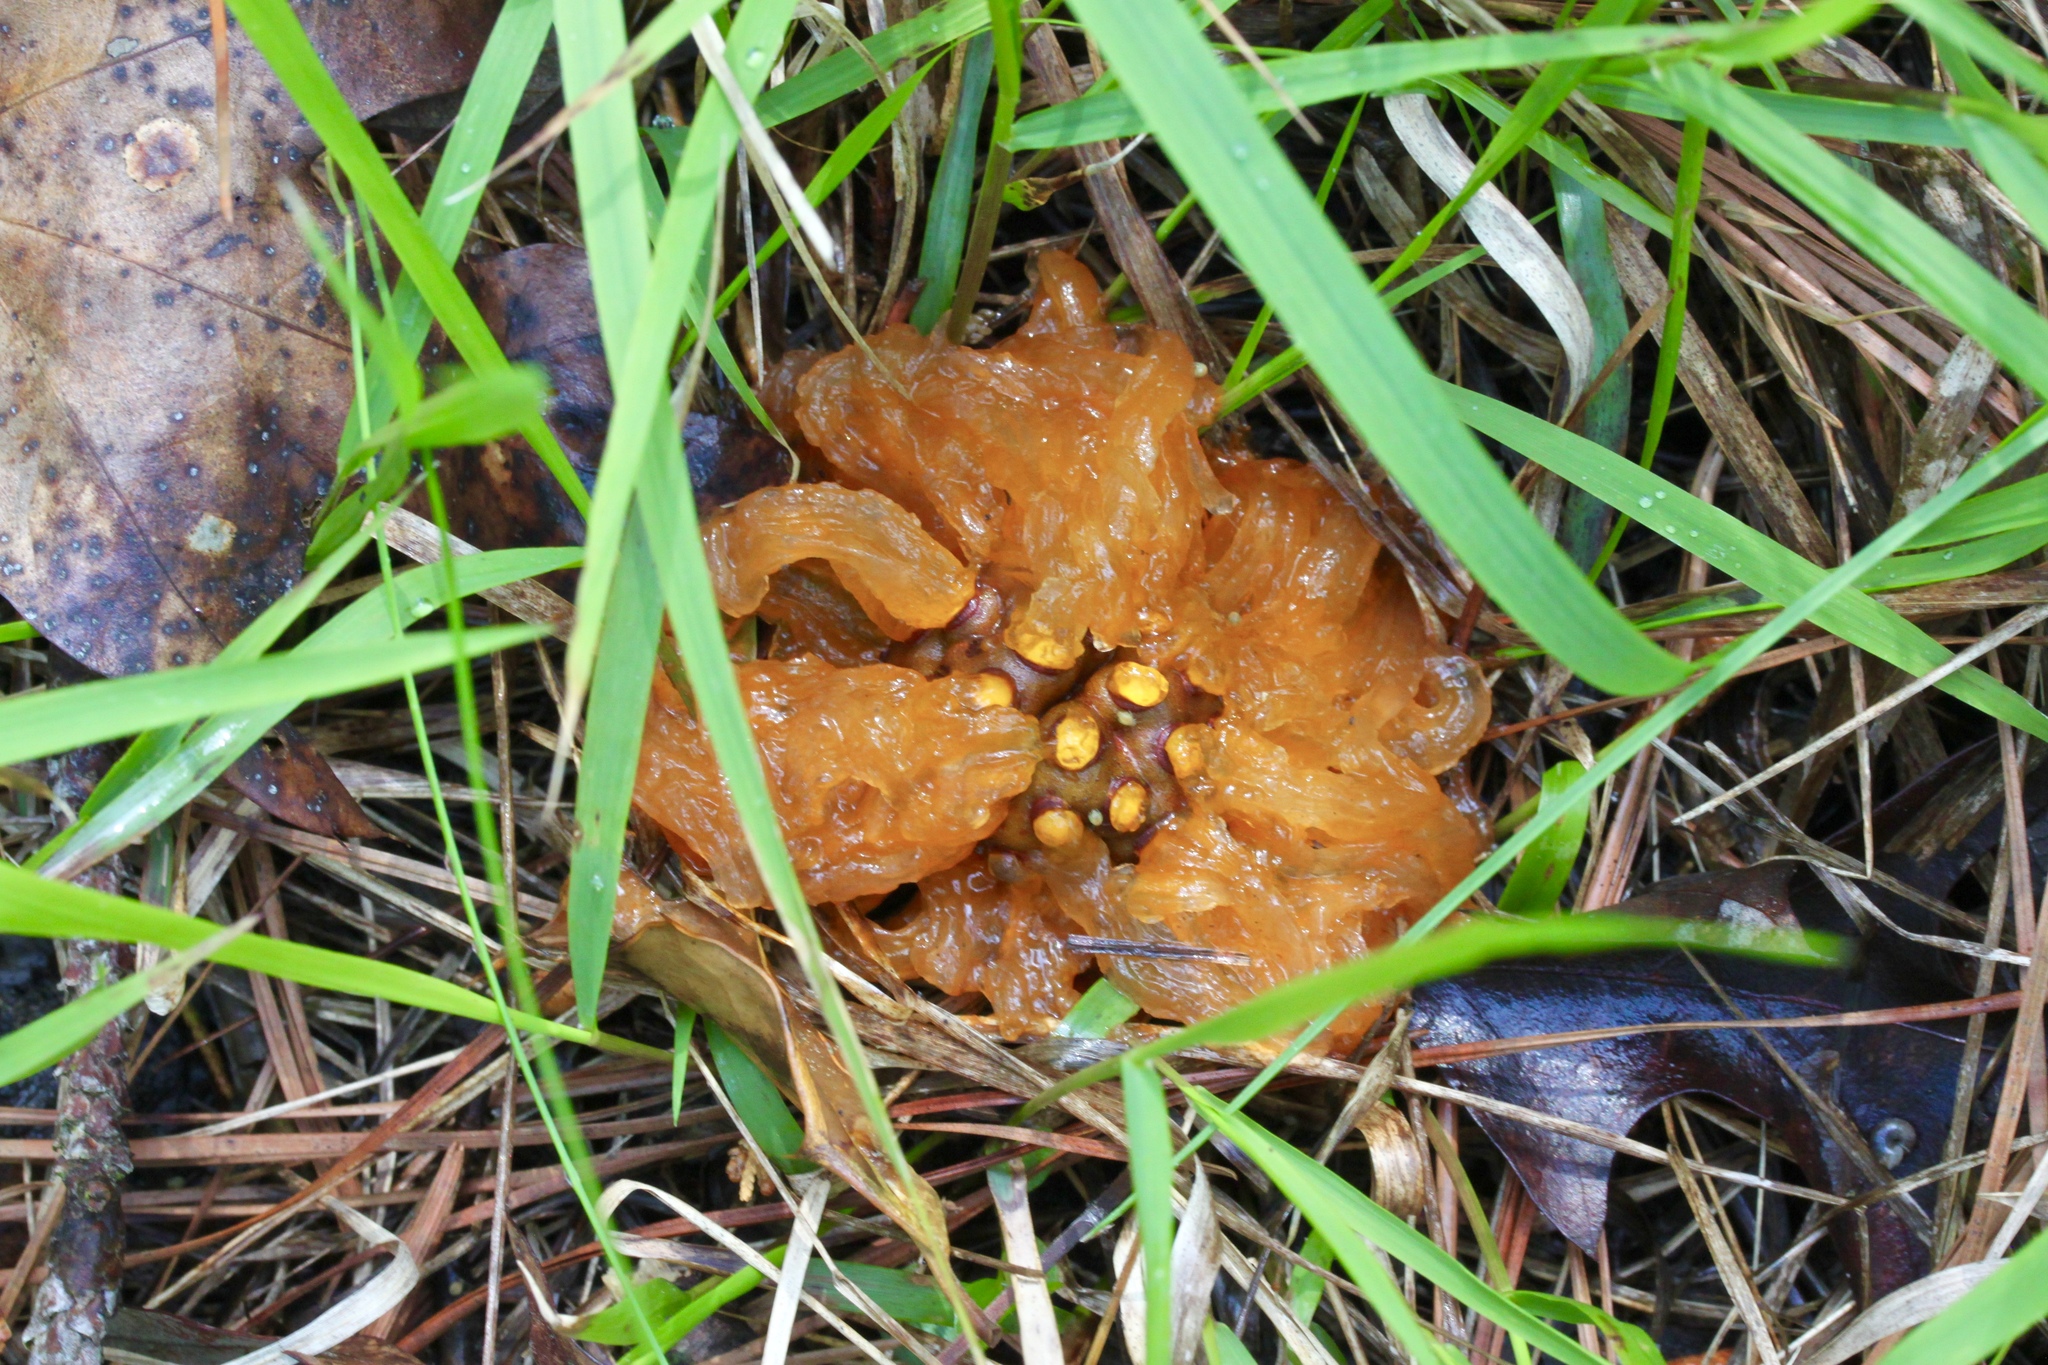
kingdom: Fungi
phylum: Basidiomycota
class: Pucciniomycetes
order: Pucciniales
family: Gymnosporangiaceae
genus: Gymnosporangium
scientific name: Gymnosporangium juniperi-virginianae
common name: Juniper-apple rust
